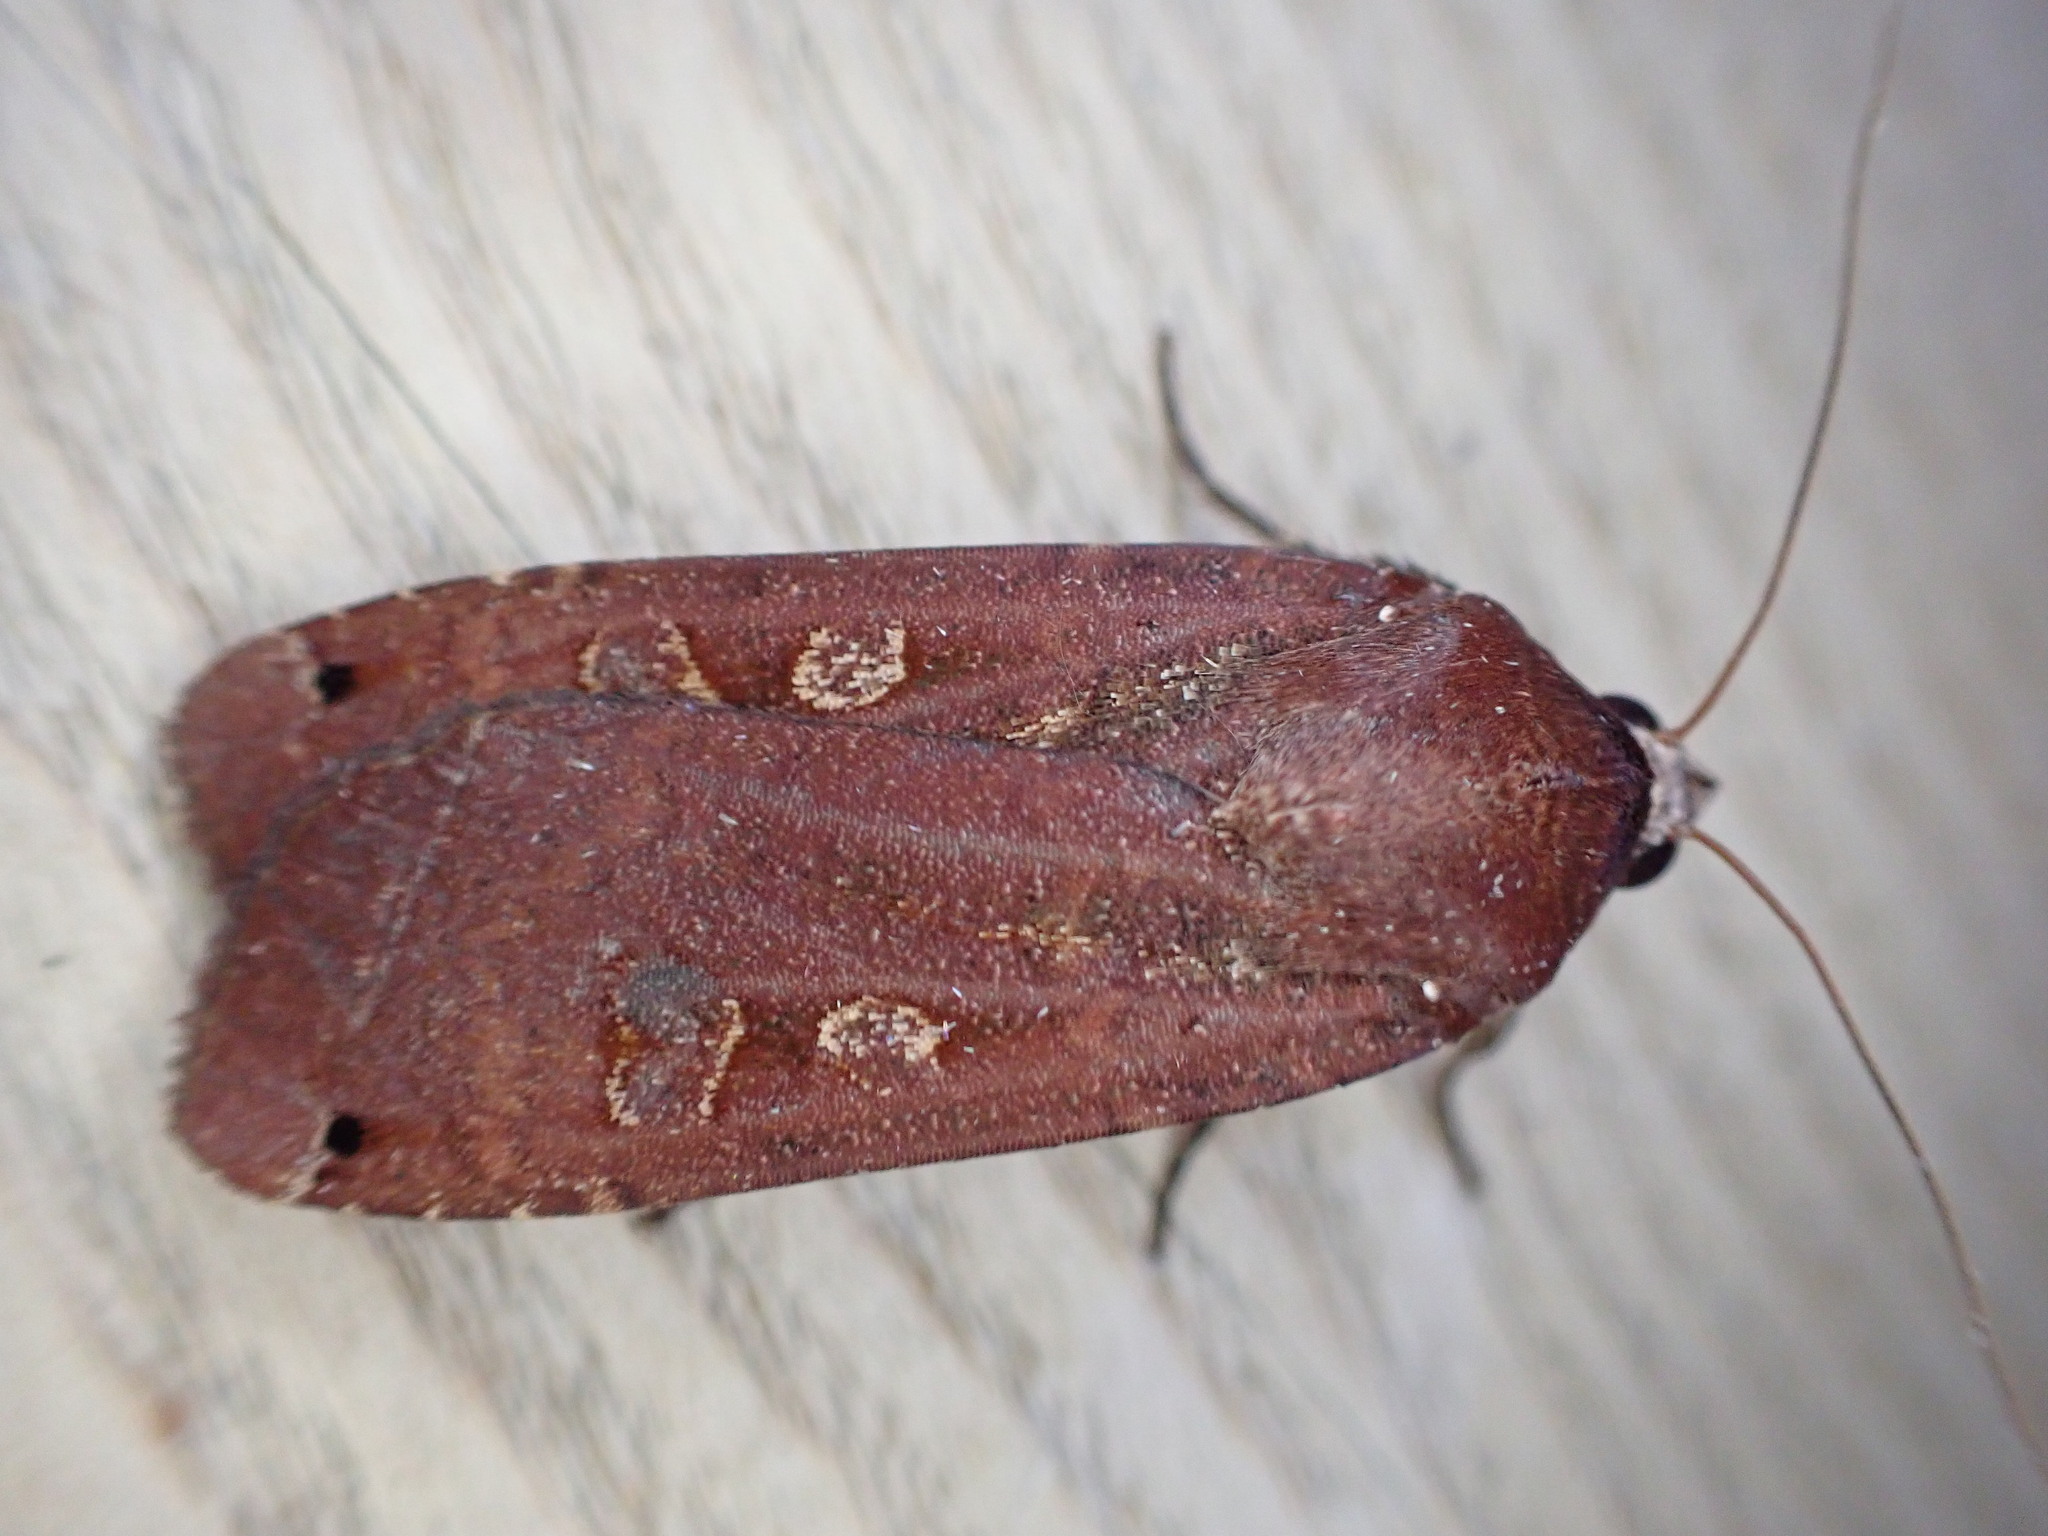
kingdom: Animalia
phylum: Arthropoda
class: Insecta
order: Lepidoptera
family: Noctuidae
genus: Noctua
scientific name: Noctua pronuba
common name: Large yellow underwing
